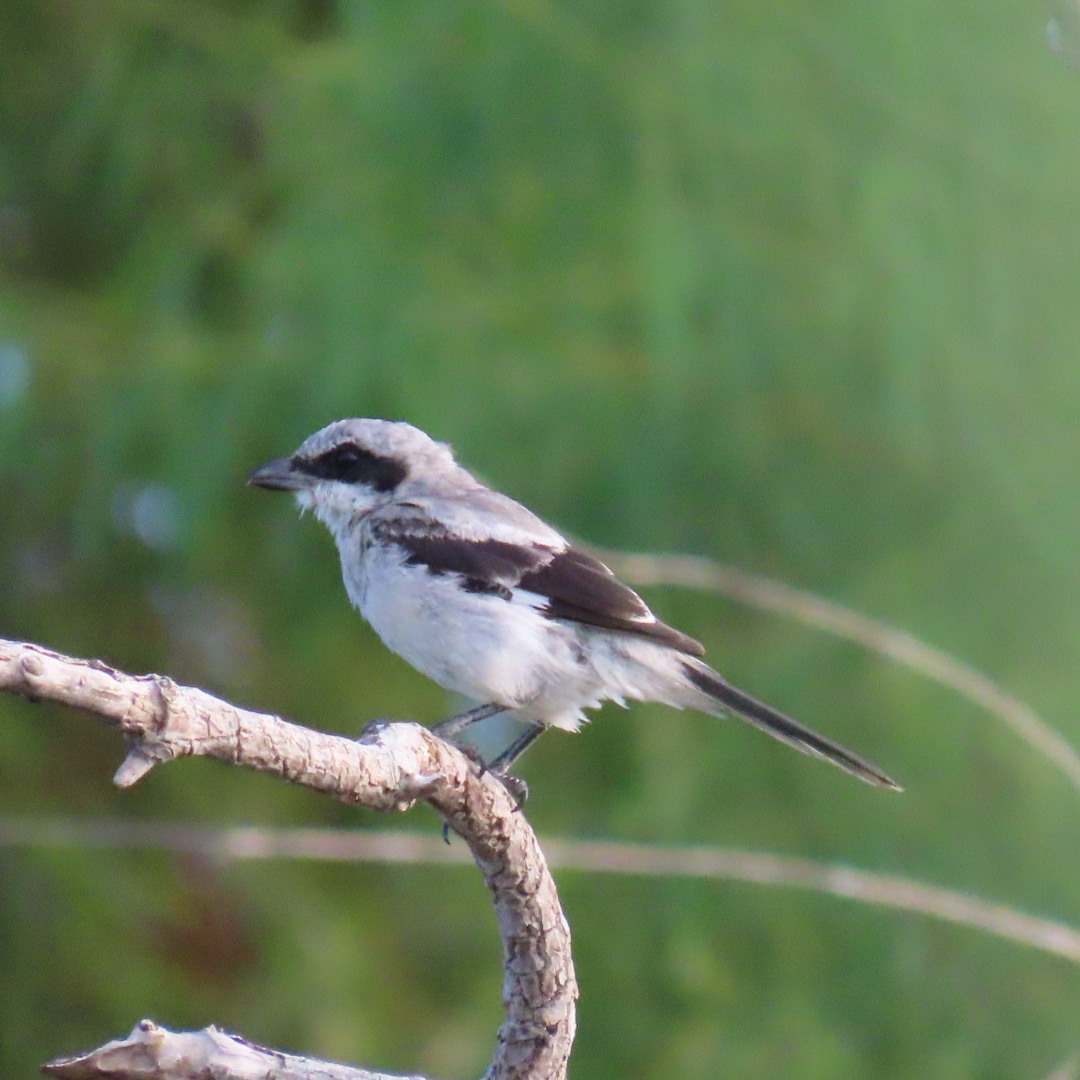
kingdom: Animalia
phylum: Chordata
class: Aves
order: Passeriformes
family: Laniidae
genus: Lanius
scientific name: Lanius ludovicianus
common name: Loggerhead shrike
